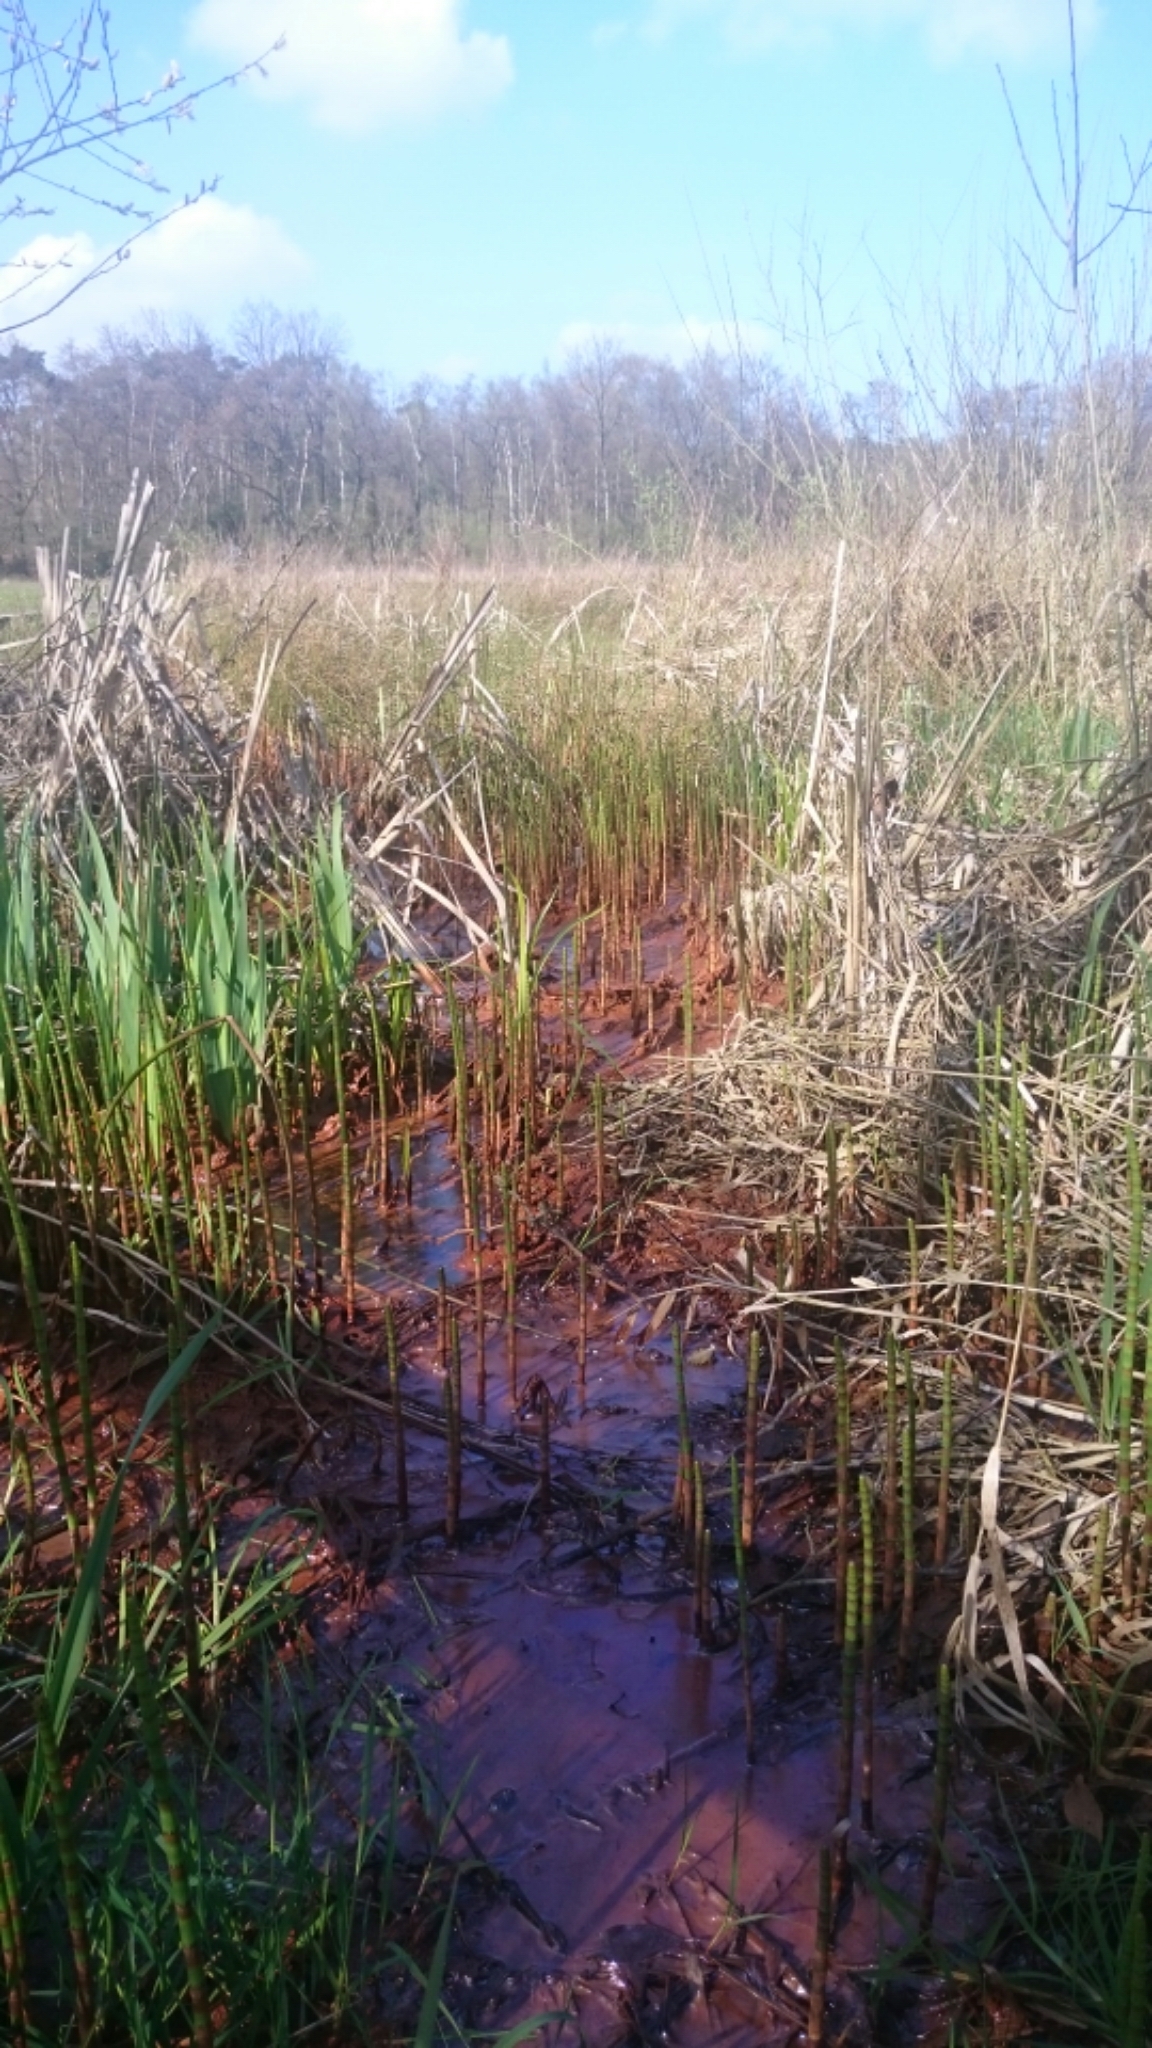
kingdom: Plantae
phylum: Tracheophyta
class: Polypodiopsida
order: Equisetales
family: Equisetaceae
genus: Equisetum
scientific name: Equisetum fluviatile
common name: Water horsetail
